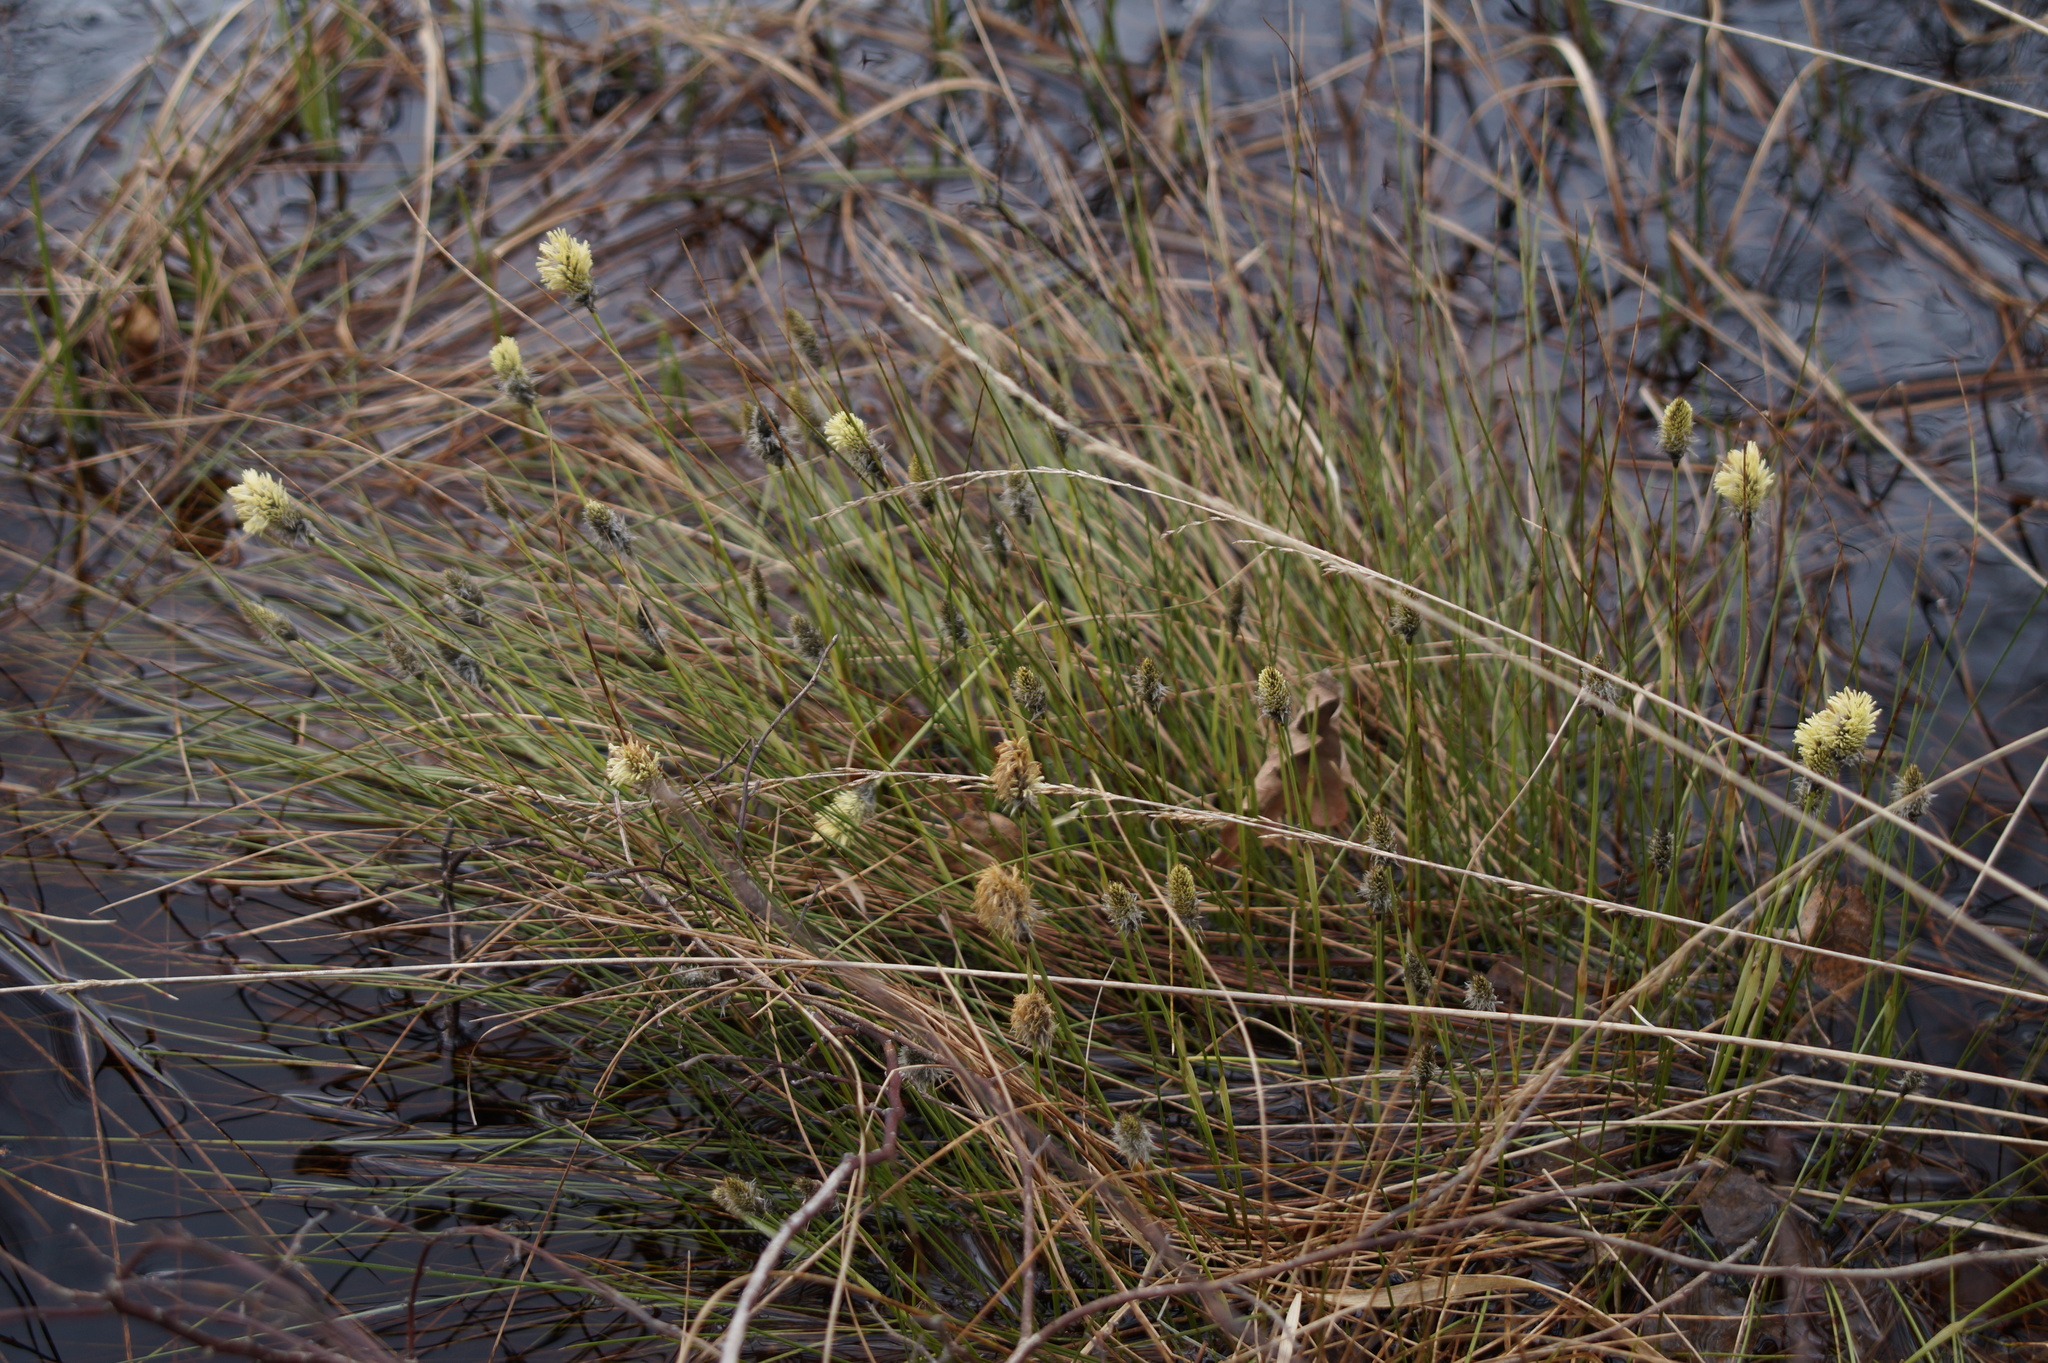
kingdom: Plantae
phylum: Tracheophyta
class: Liliopsida
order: Poales
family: Cyperaceae
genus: Eriophorum
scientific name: Eriophorum vaginatum
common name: Hare's-tail cottongrass
